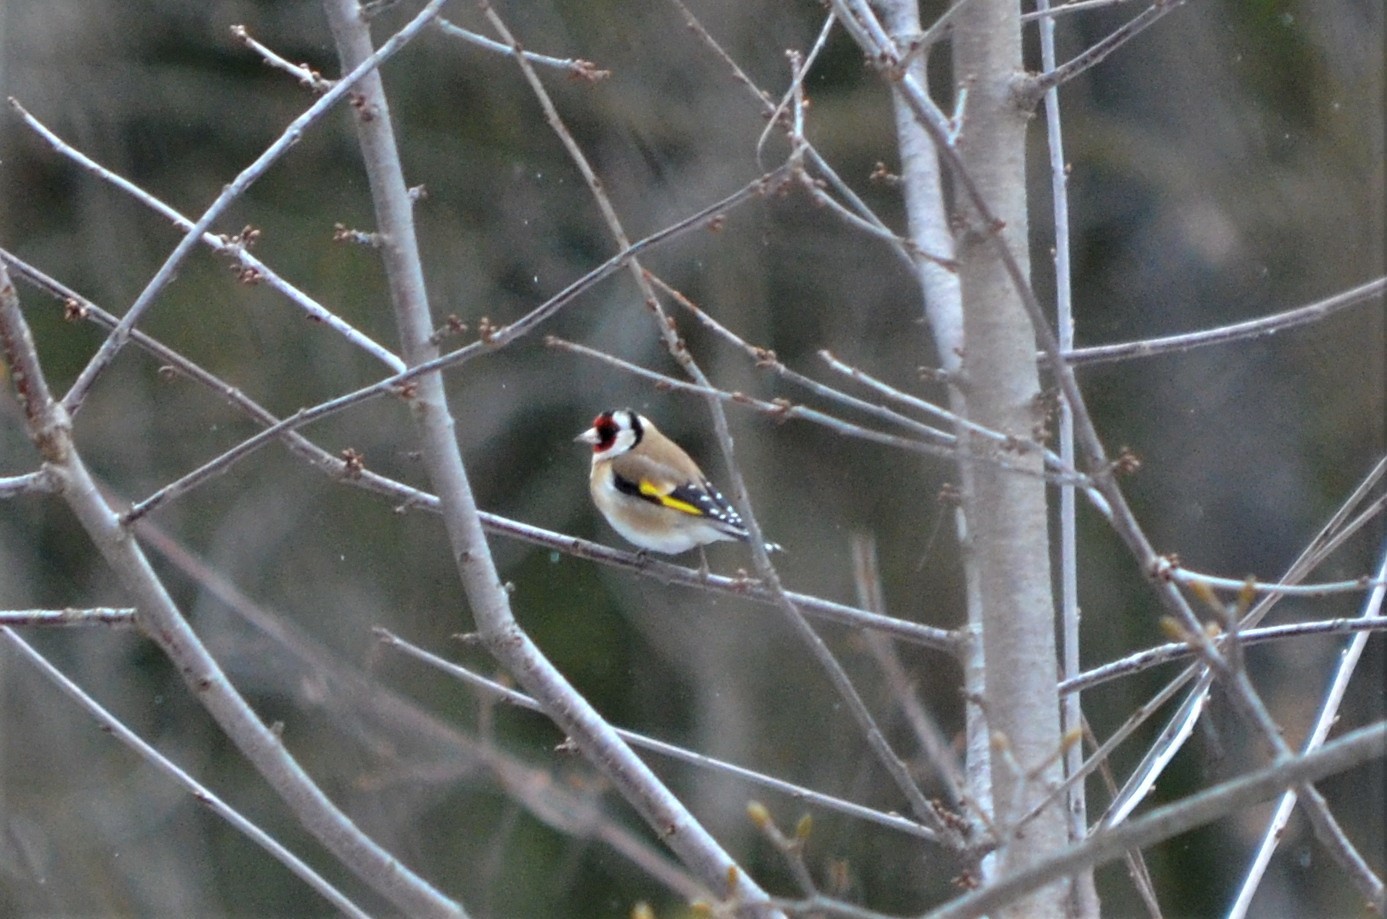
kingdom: Animalia
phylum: Chordata
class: Aves
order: Passeriformes
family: Fringillidae
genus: Carduelis
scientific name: Carduelis carduelis
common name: European goldfinch
